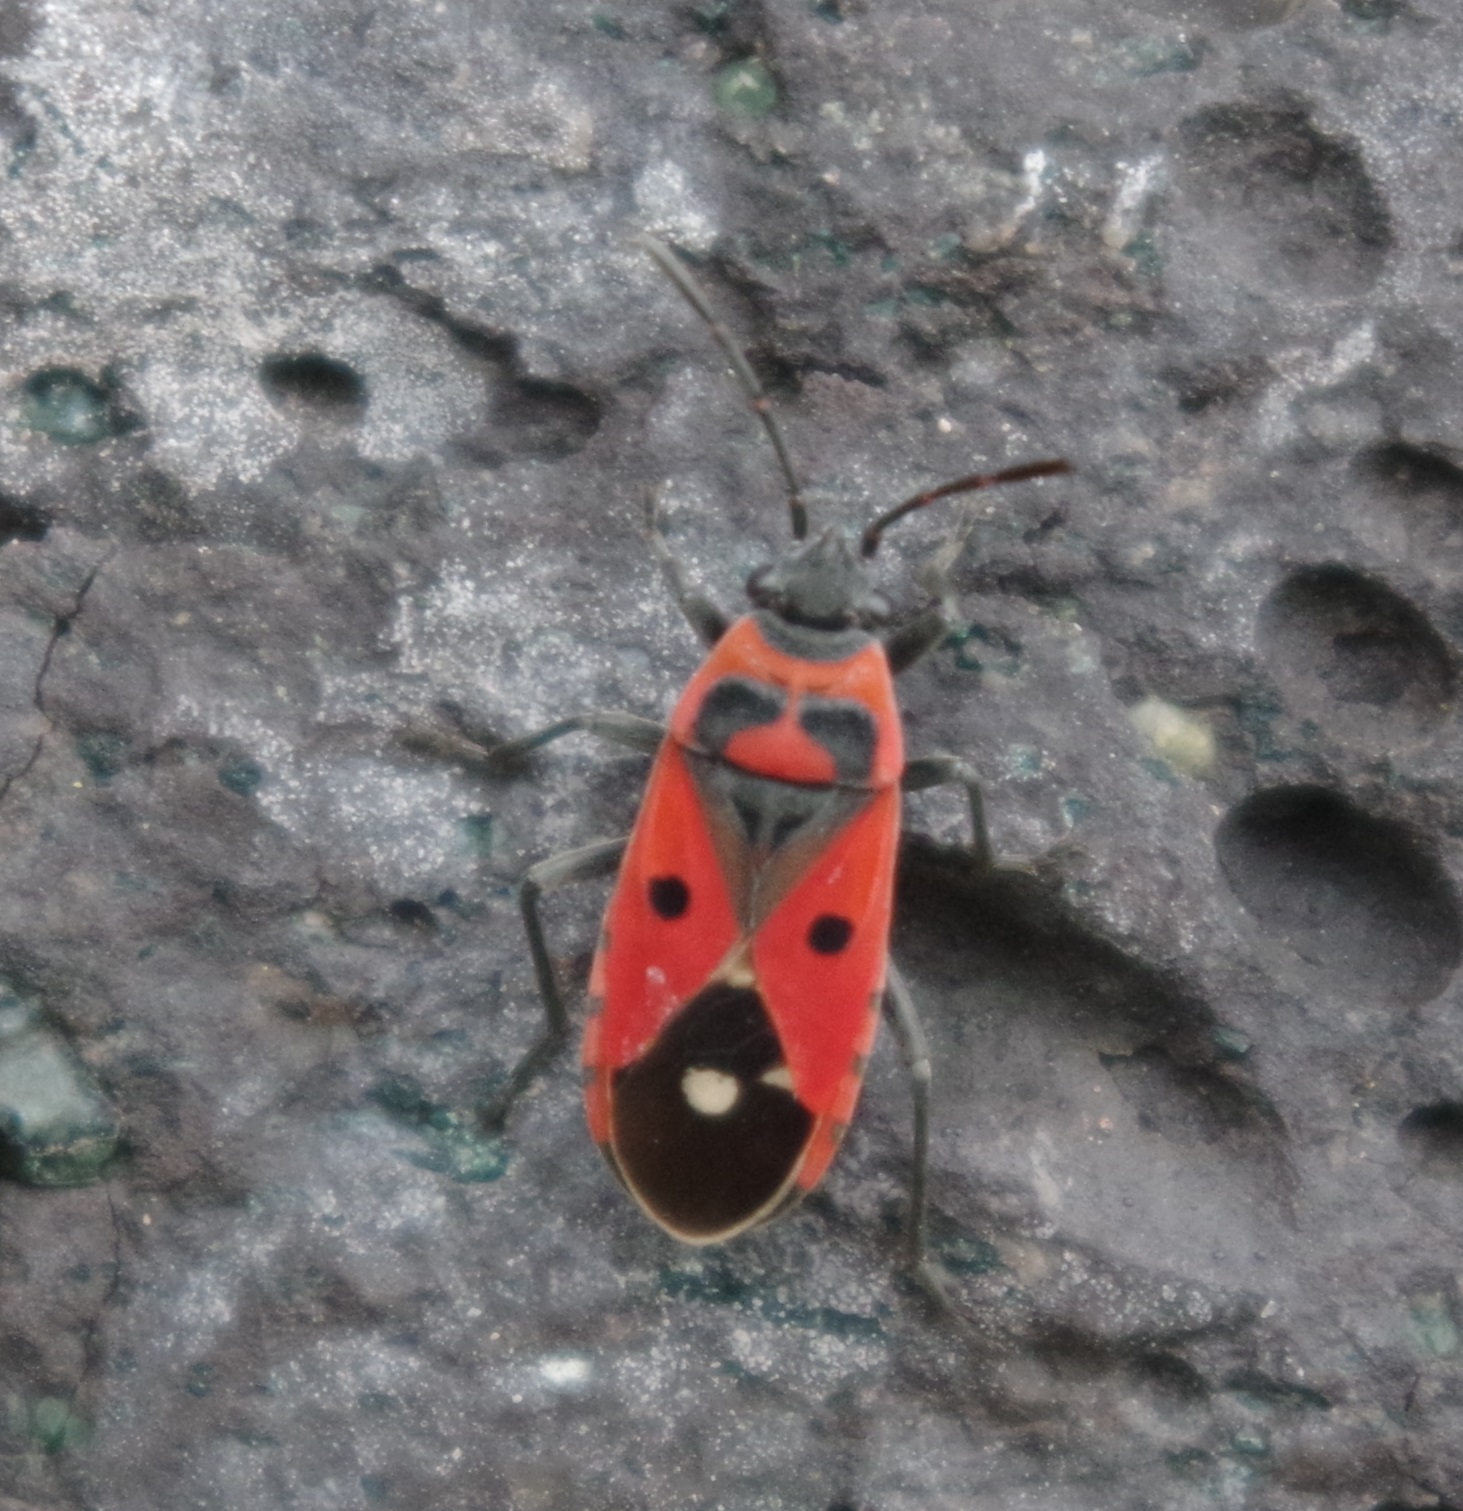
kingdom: Animalia
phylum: Arthropoda
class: Insecta
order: Hemiptera
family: Lygaeidae
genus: Melanocoryphus
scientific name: Melanocoryphus albomaculatus
